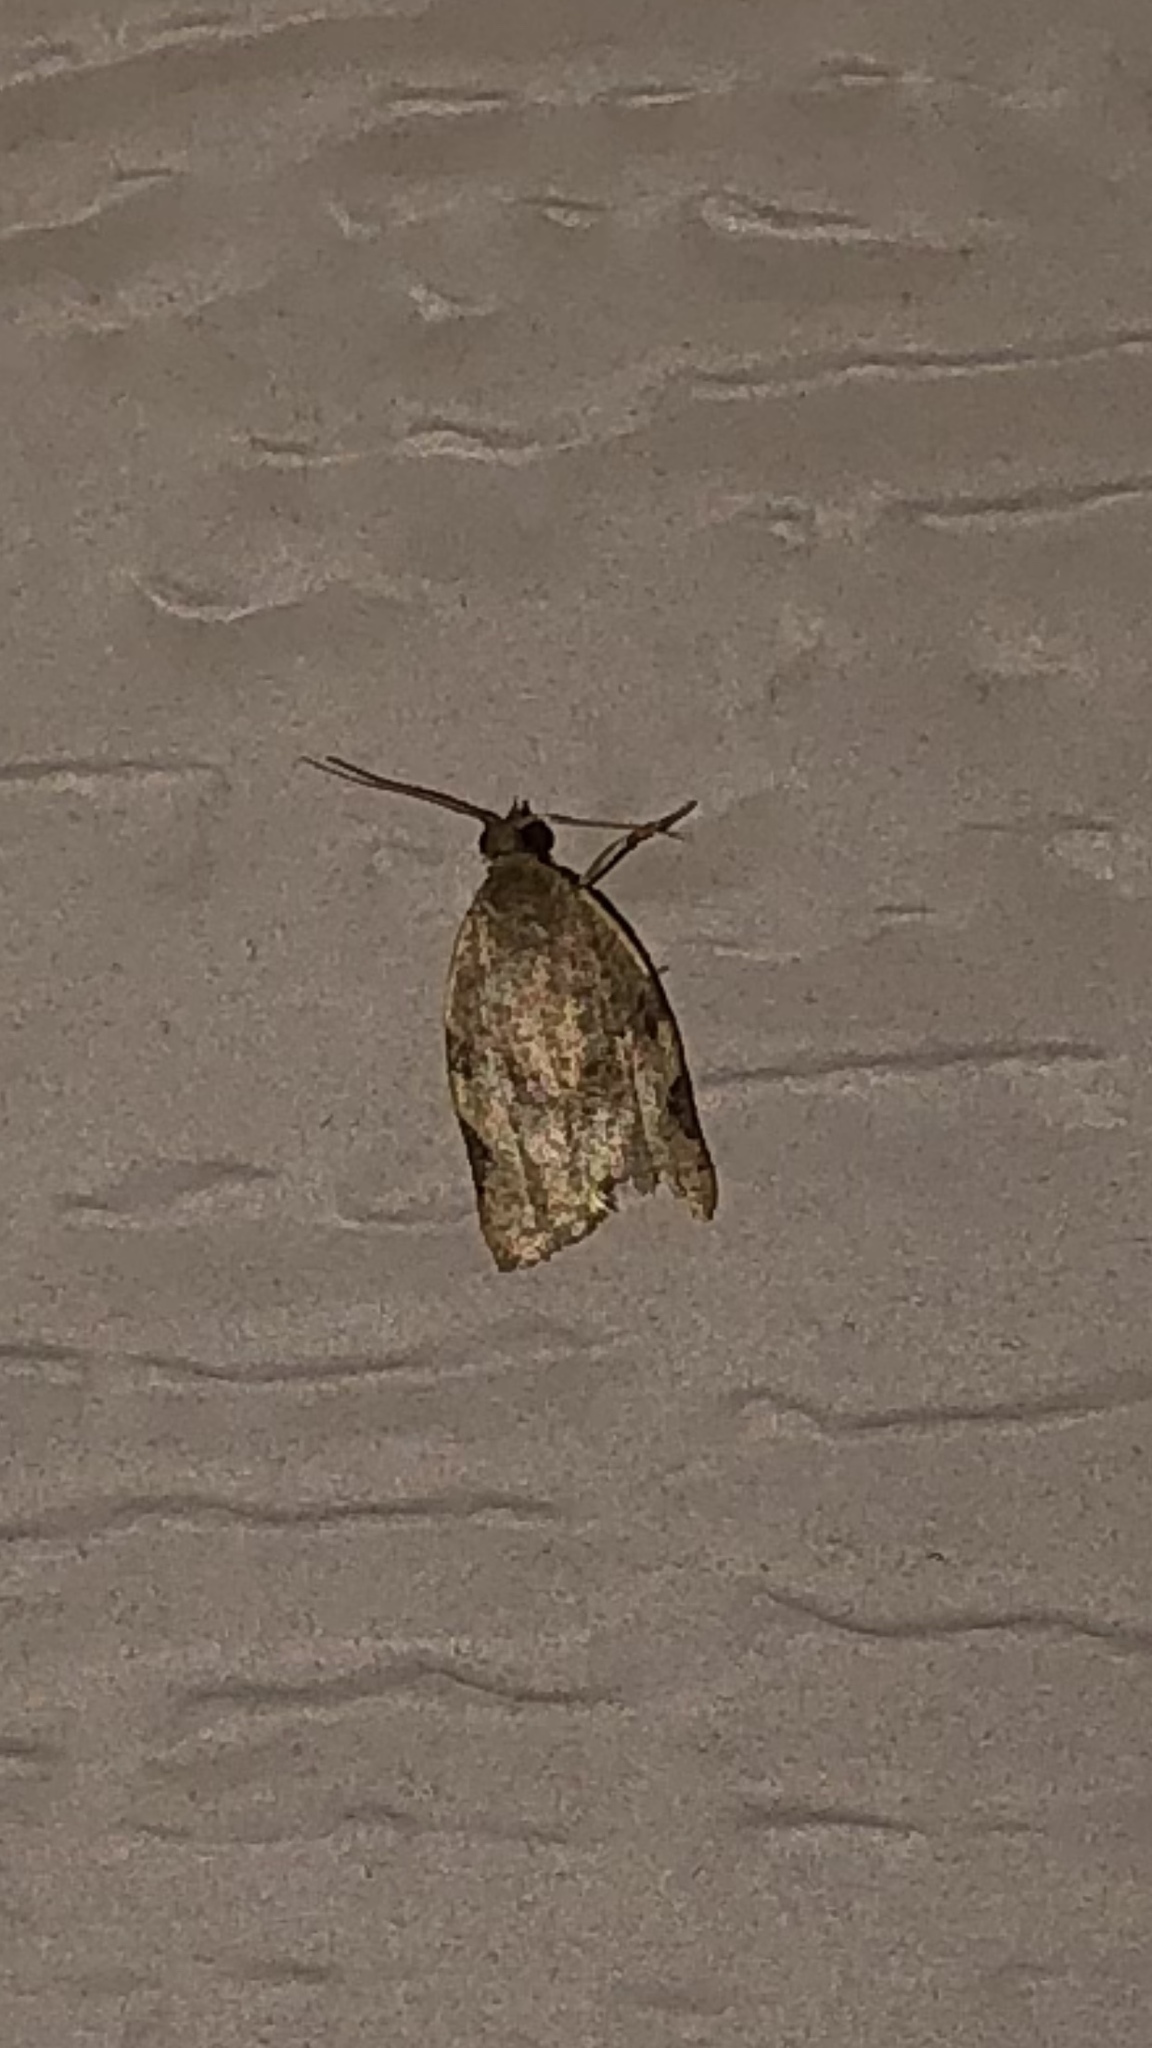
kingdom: Animalia
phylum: Arthropoda
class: Insecta
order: Lepidoptera
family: Tortricidae
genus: Clepsis
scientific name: Clepsis virescana
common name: Greenish apple moth
